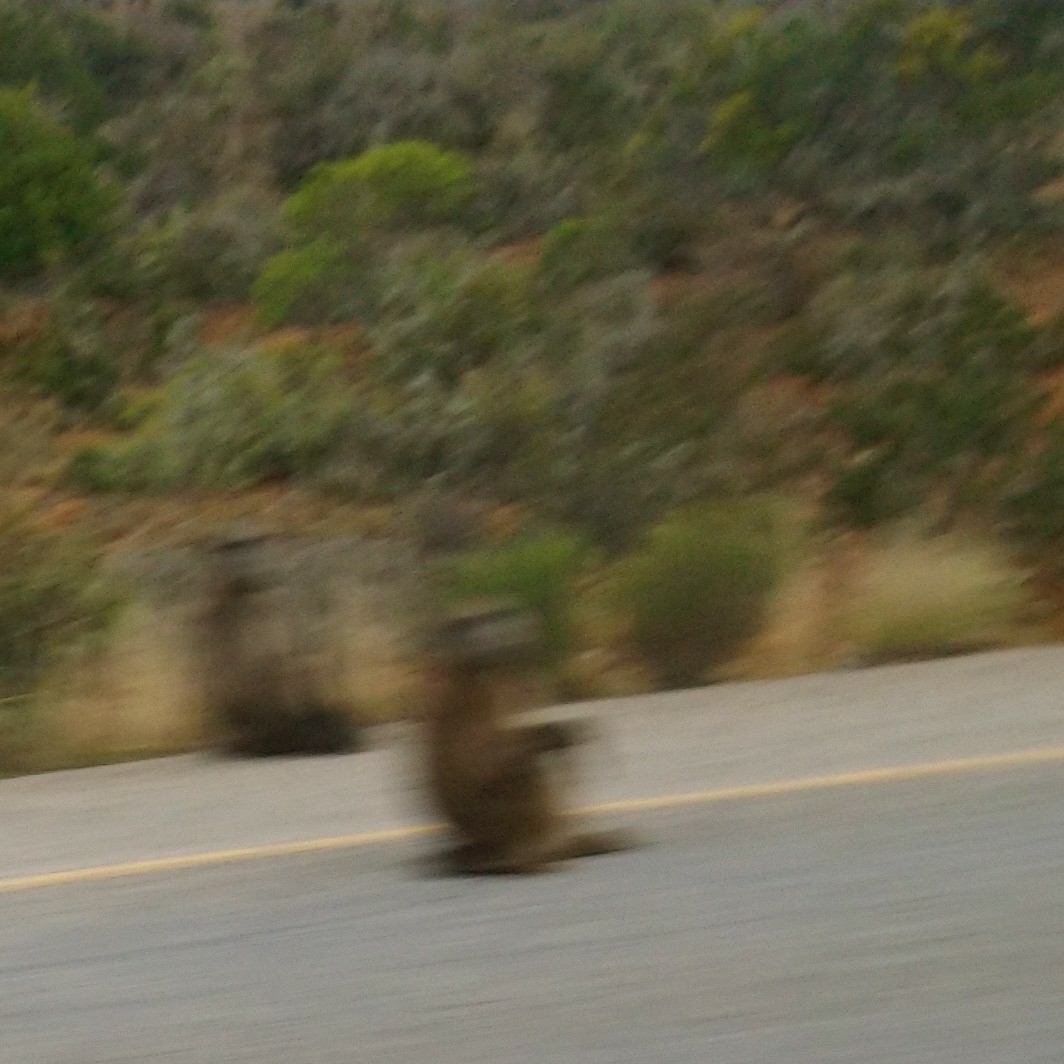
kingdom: Animalia
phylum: Chordata
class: Mammalia
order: Primates
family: Cercopithecidae
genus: Papio
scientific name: Papio ursinus
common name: Chacma baboon
